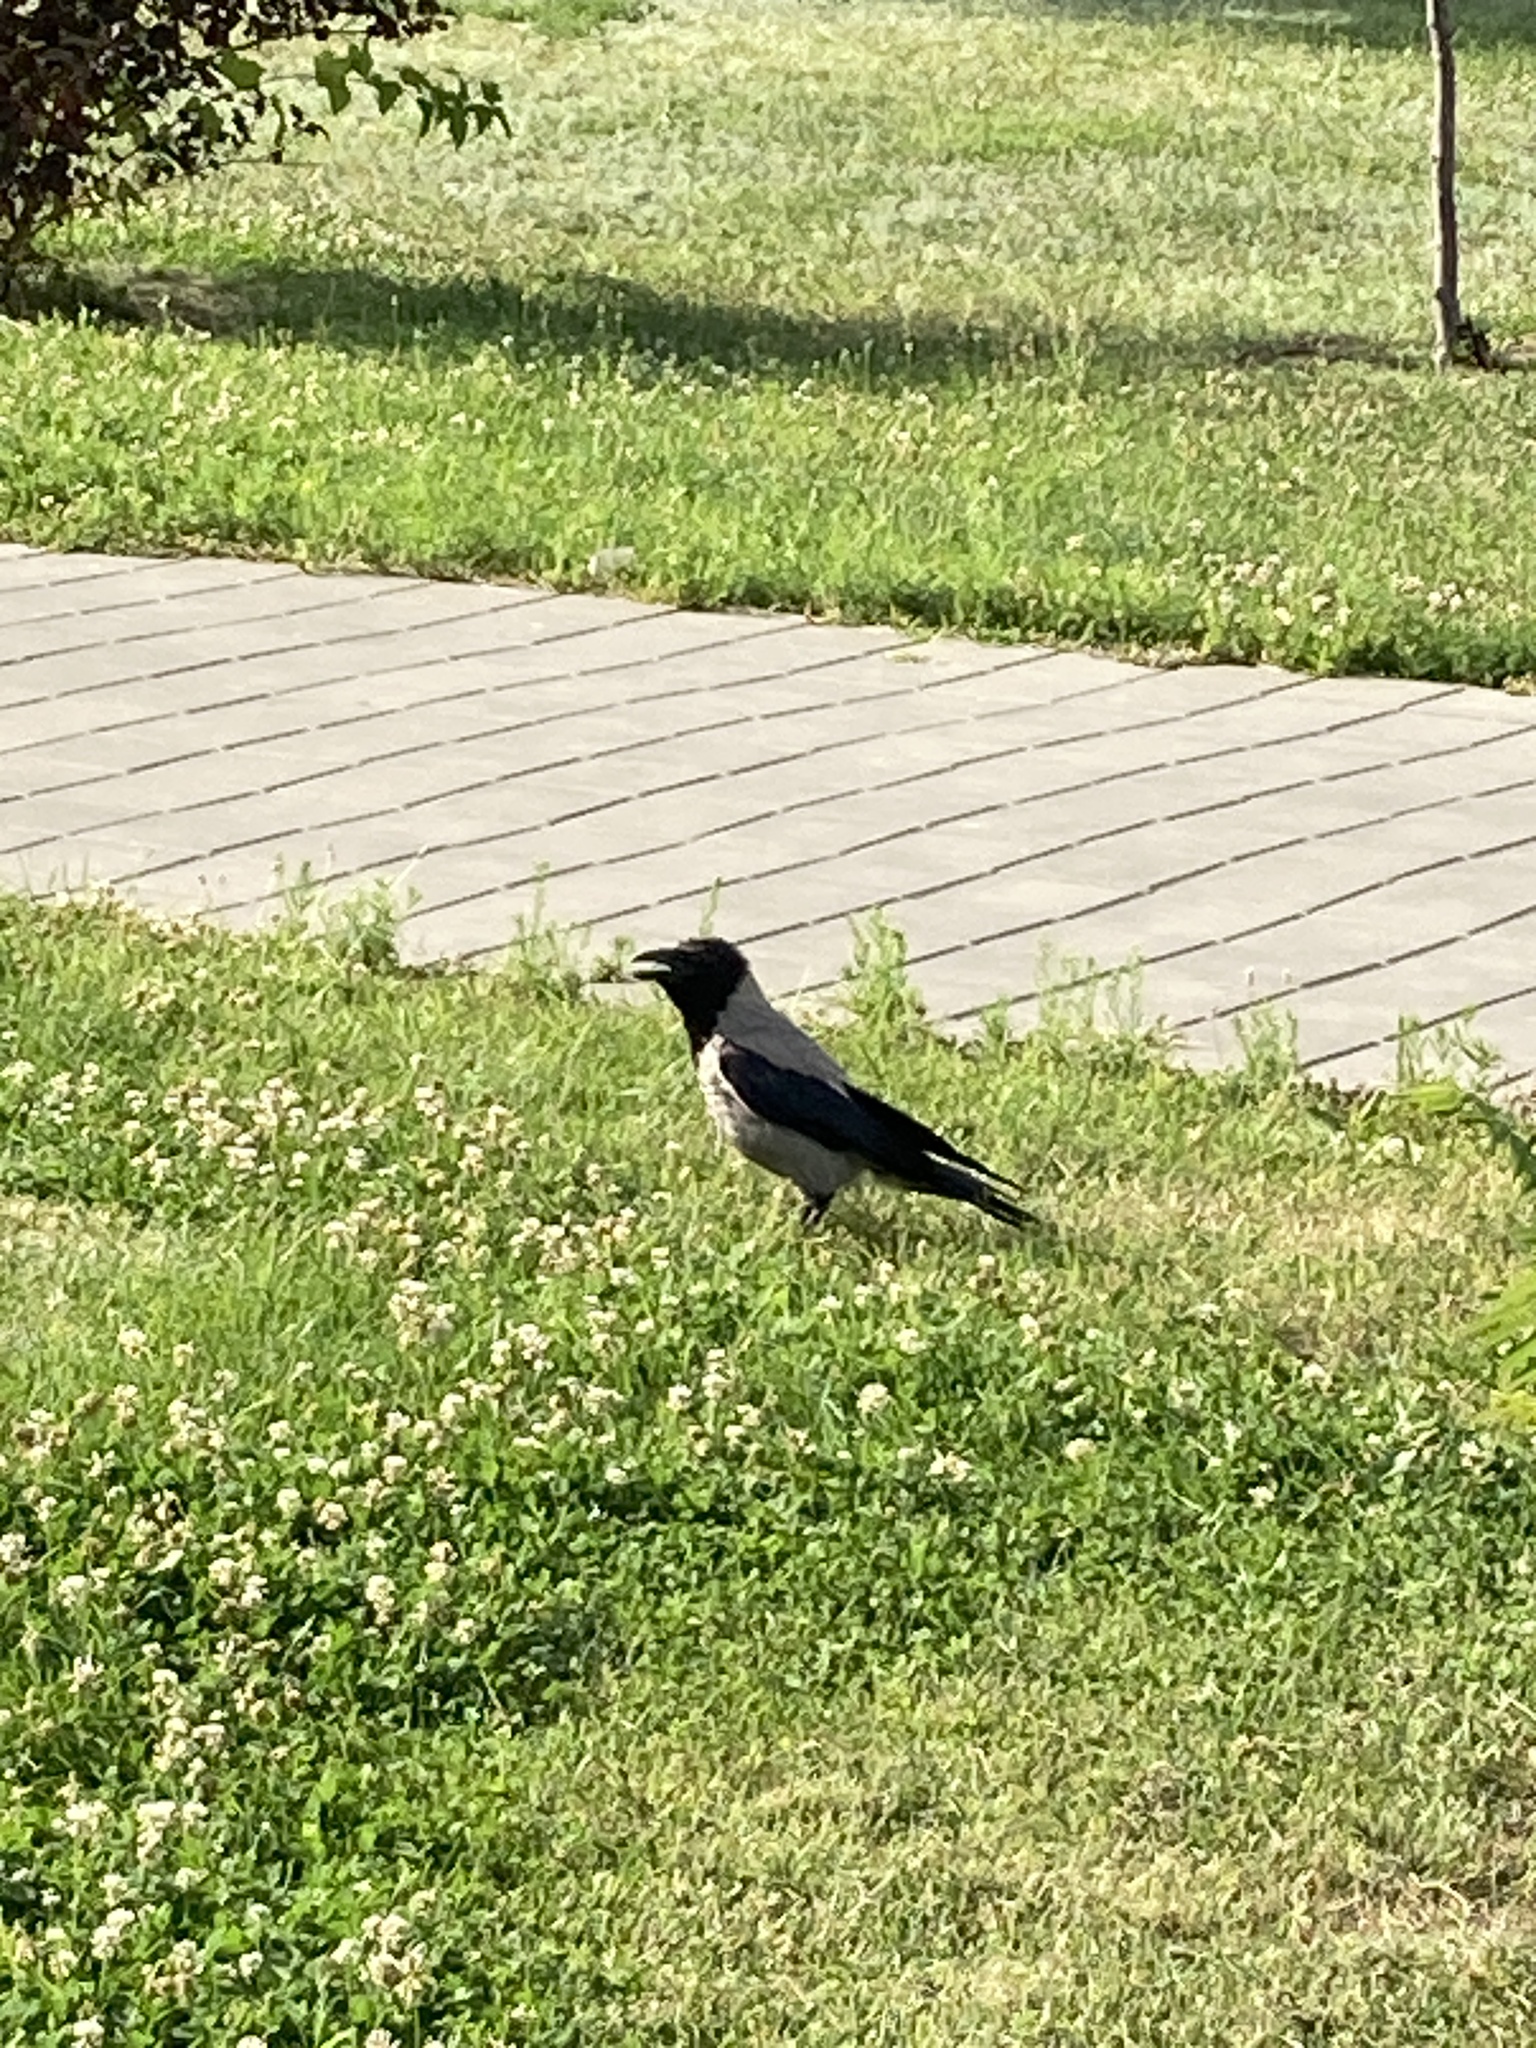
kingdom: Animalia
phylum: Chordata
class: Aves
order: Passeriformes
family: Corvidae
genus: Corvus
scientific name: Corvus cornix
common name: Hooded crow
